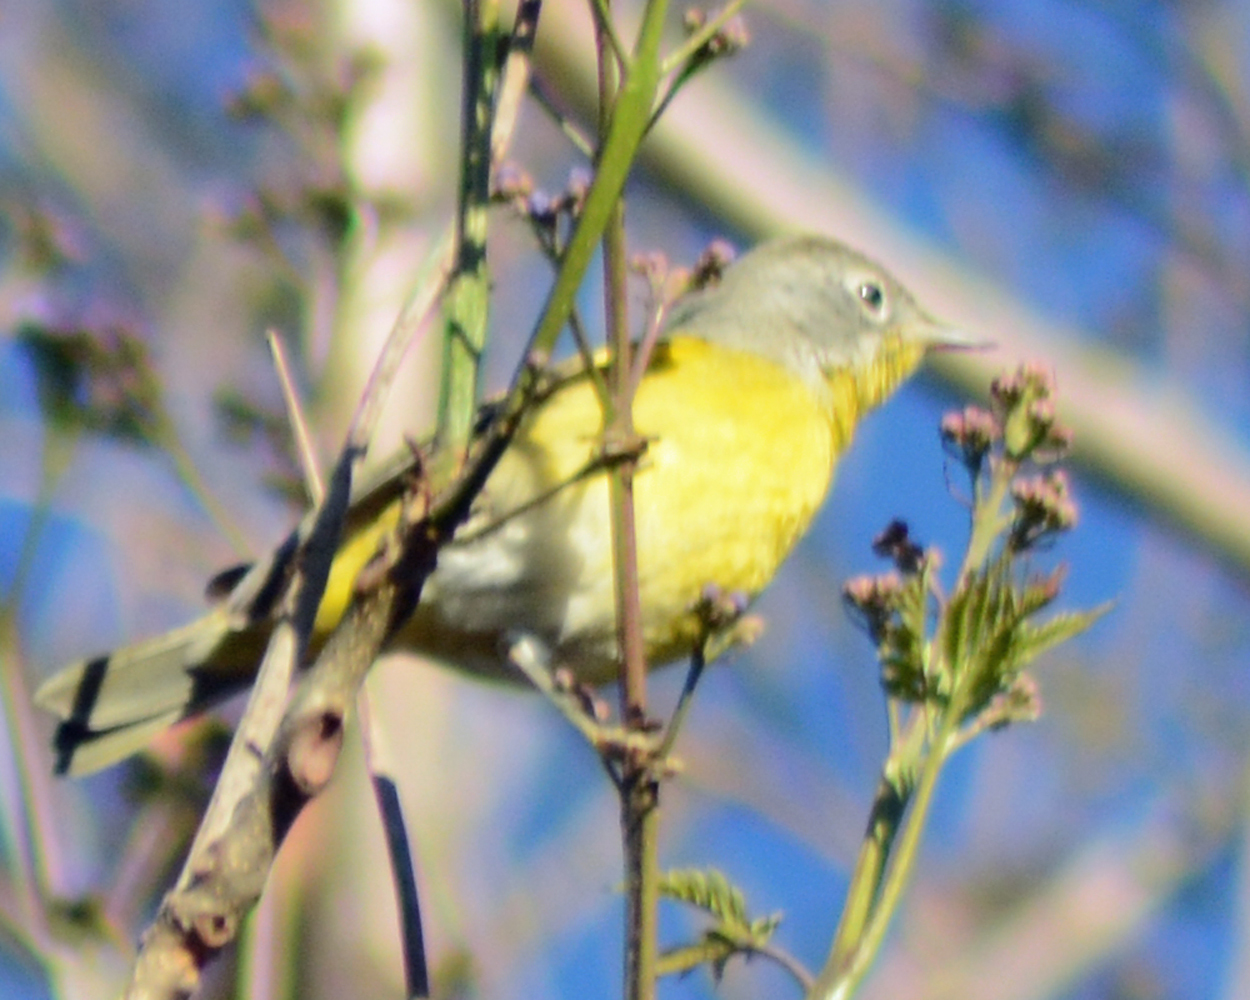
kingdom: Animalia
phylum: Chordata
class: Aves
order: Passeriformes
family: Parulidae
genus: Leiothlypis
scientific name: Leiothlypis ruficapilla
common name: Nashville warbler
